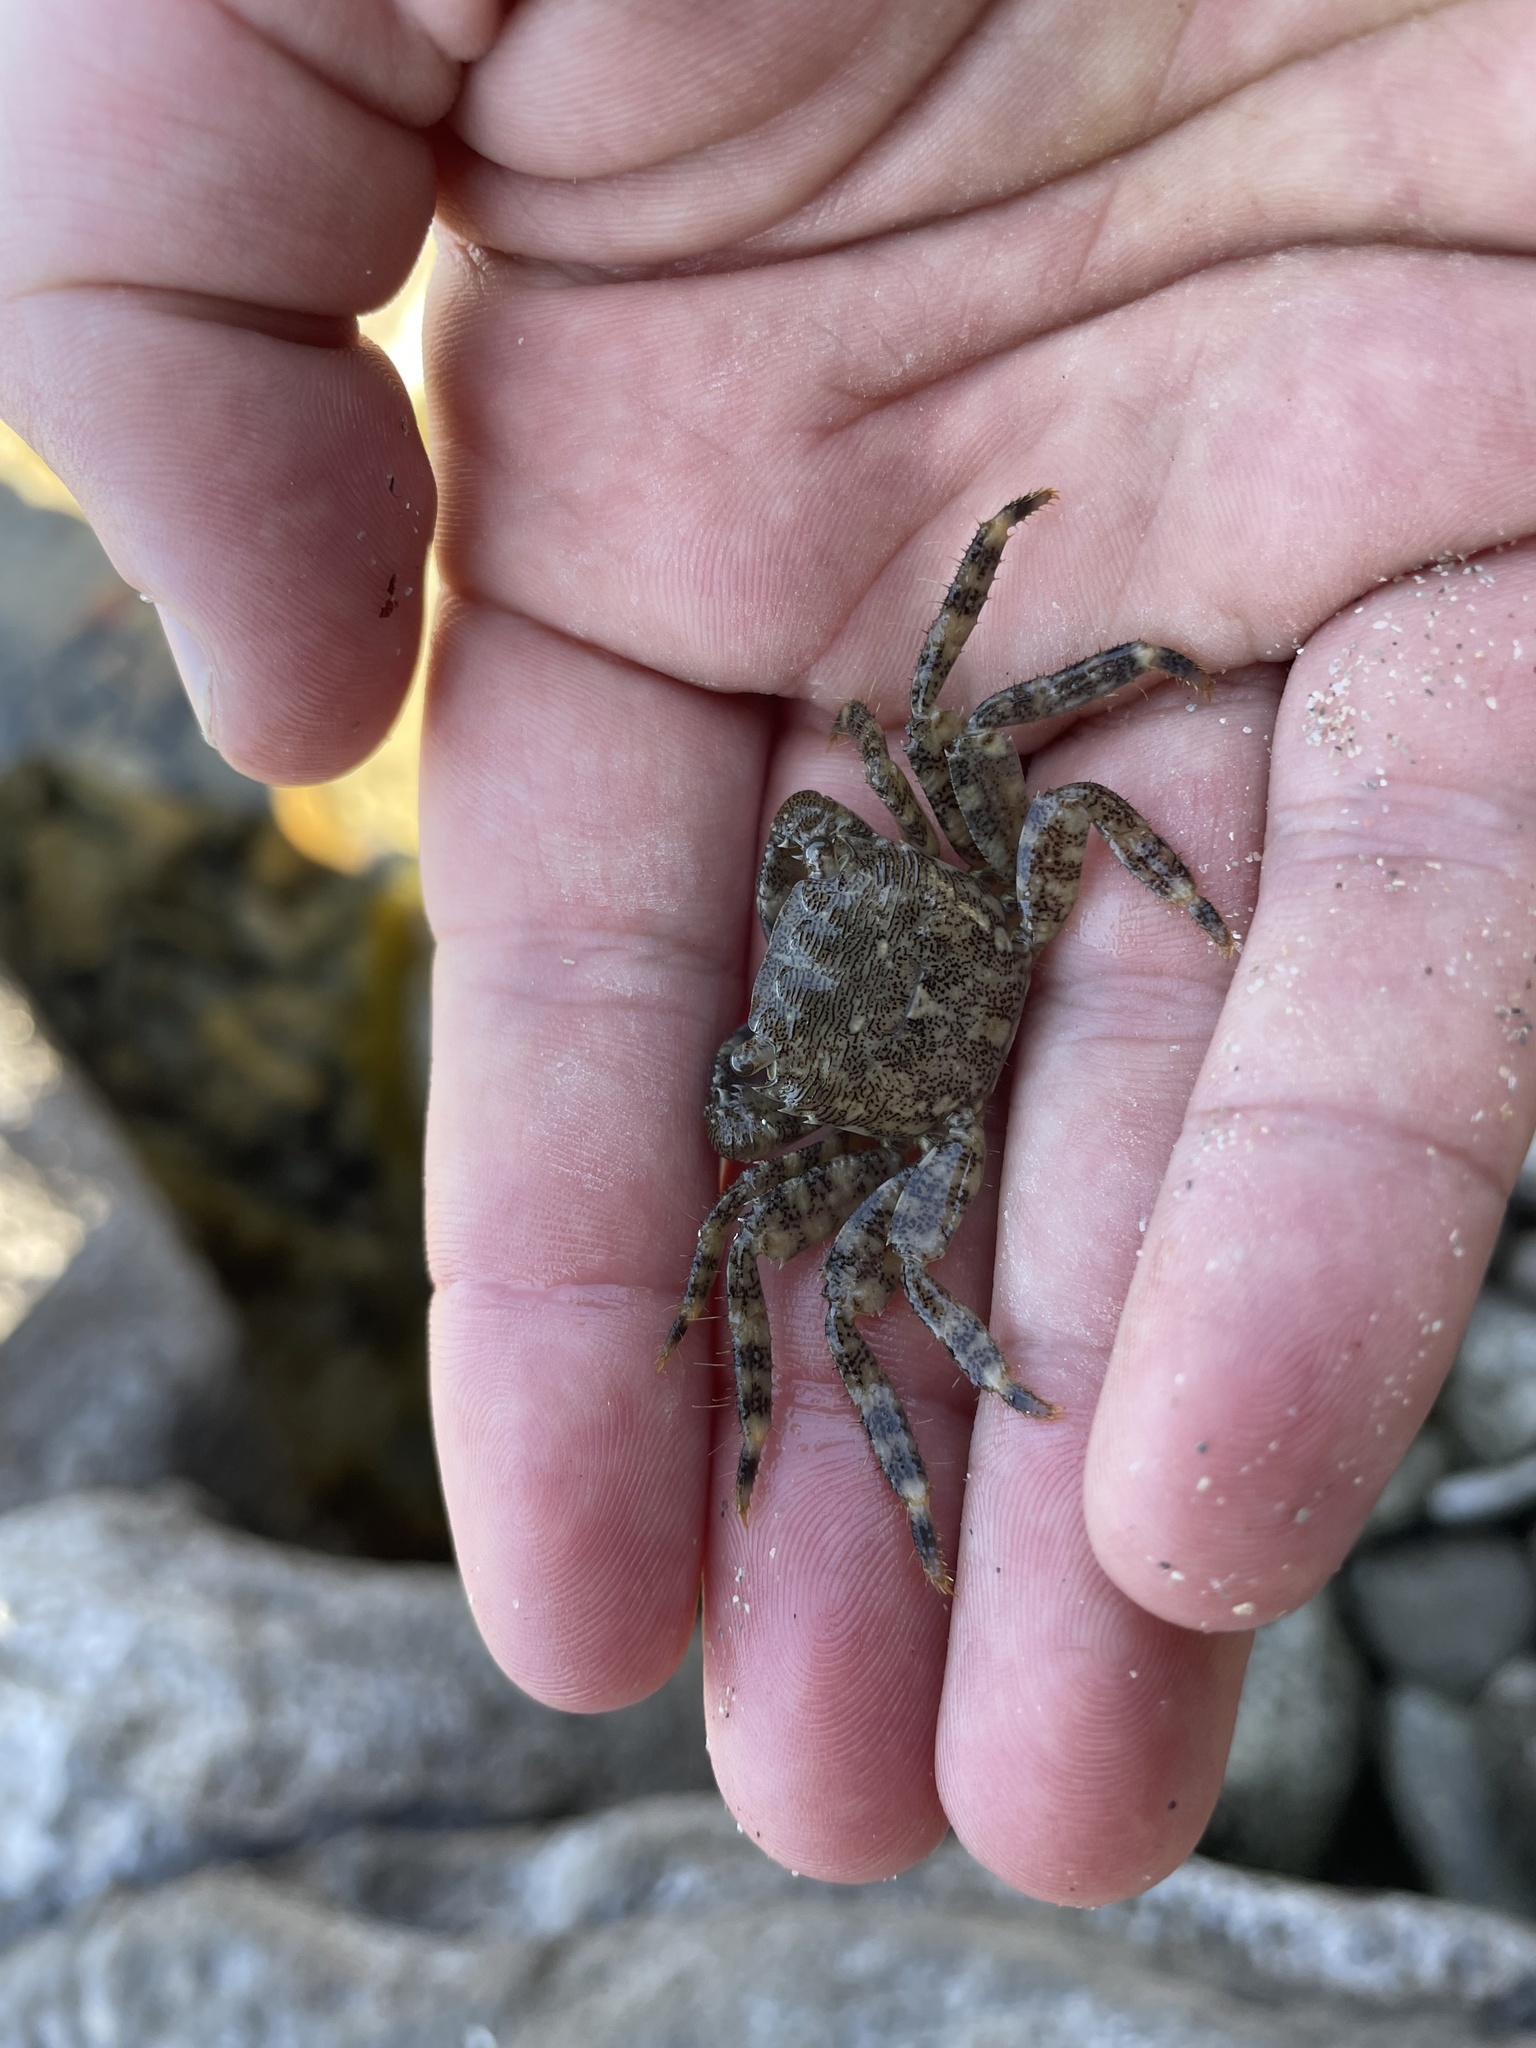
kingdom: Animalia
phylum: Arthropoda
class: Malacostraca
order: Decapoda
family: Grapsidae
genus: Pachygrapsus
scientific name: Pachygrapsus marmoratus
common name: Marbled rock crab
